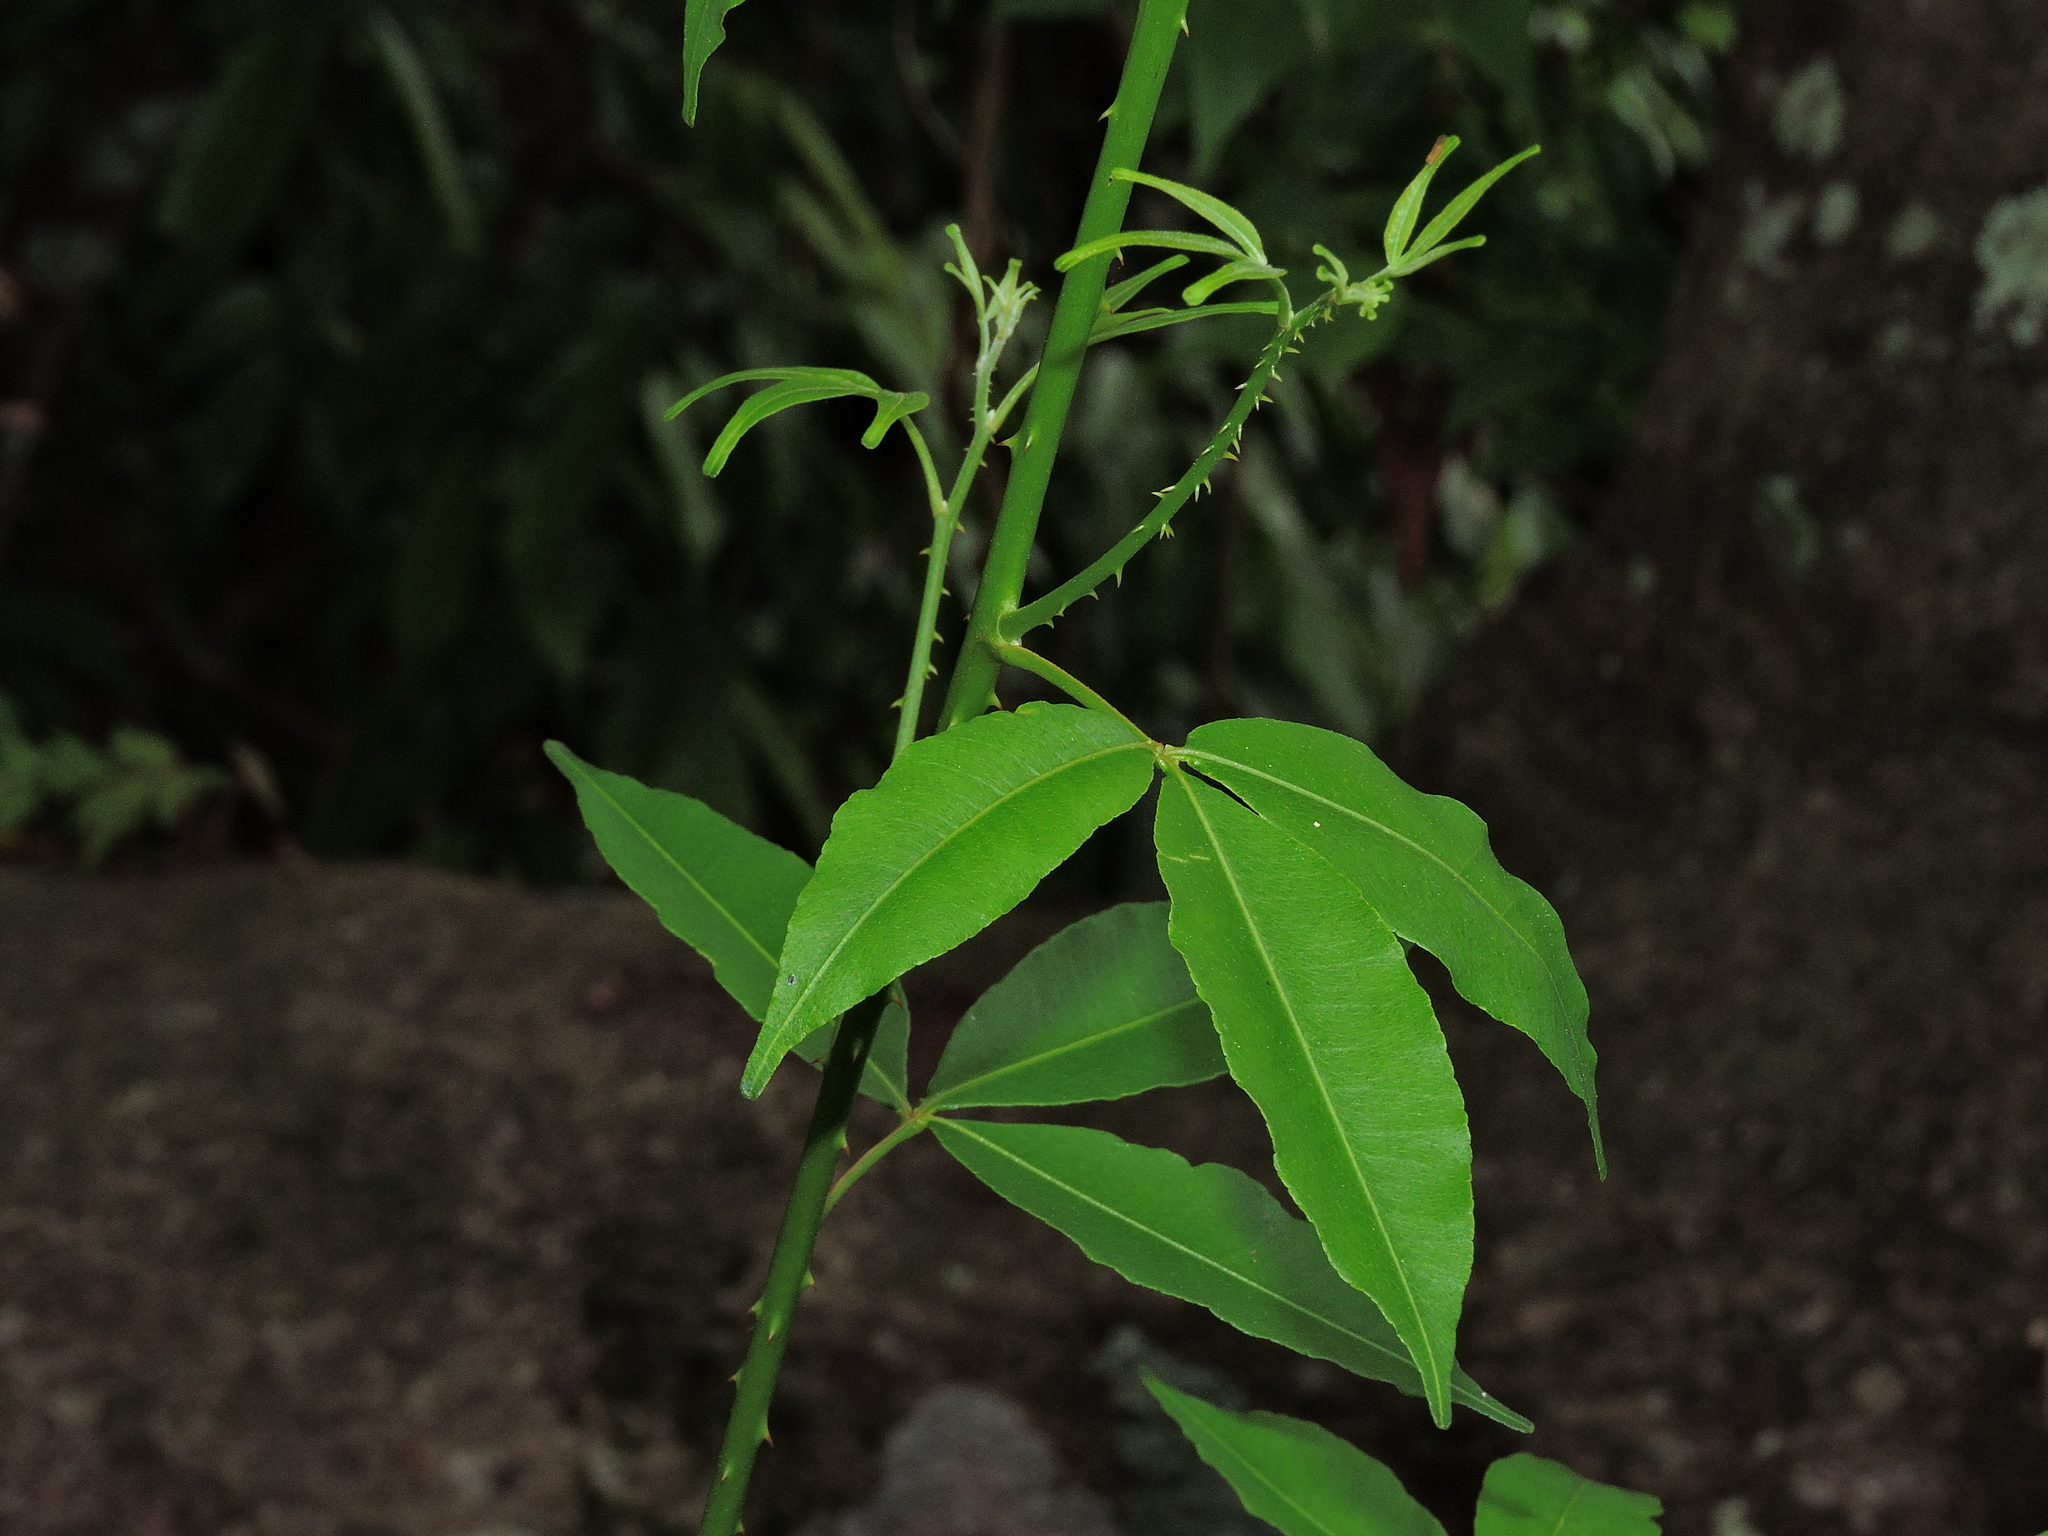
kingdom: Plantae
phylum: Tracheophyta
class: Magnoliopsida
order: Sapindales
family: Rutaceae
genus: Zanthoxylum
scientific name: Zanthoxylum asiaticum
